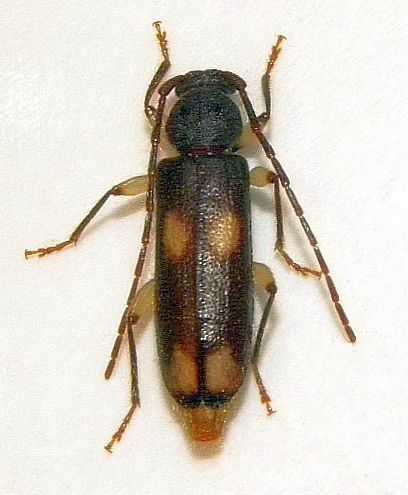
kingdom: Animalia
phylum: Arthropoda
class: Insecta
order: Coleoptera
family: Cerambycidae
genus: Tylonotus
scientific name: Tylonotus bimaculatus
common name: Ash and privet borer
